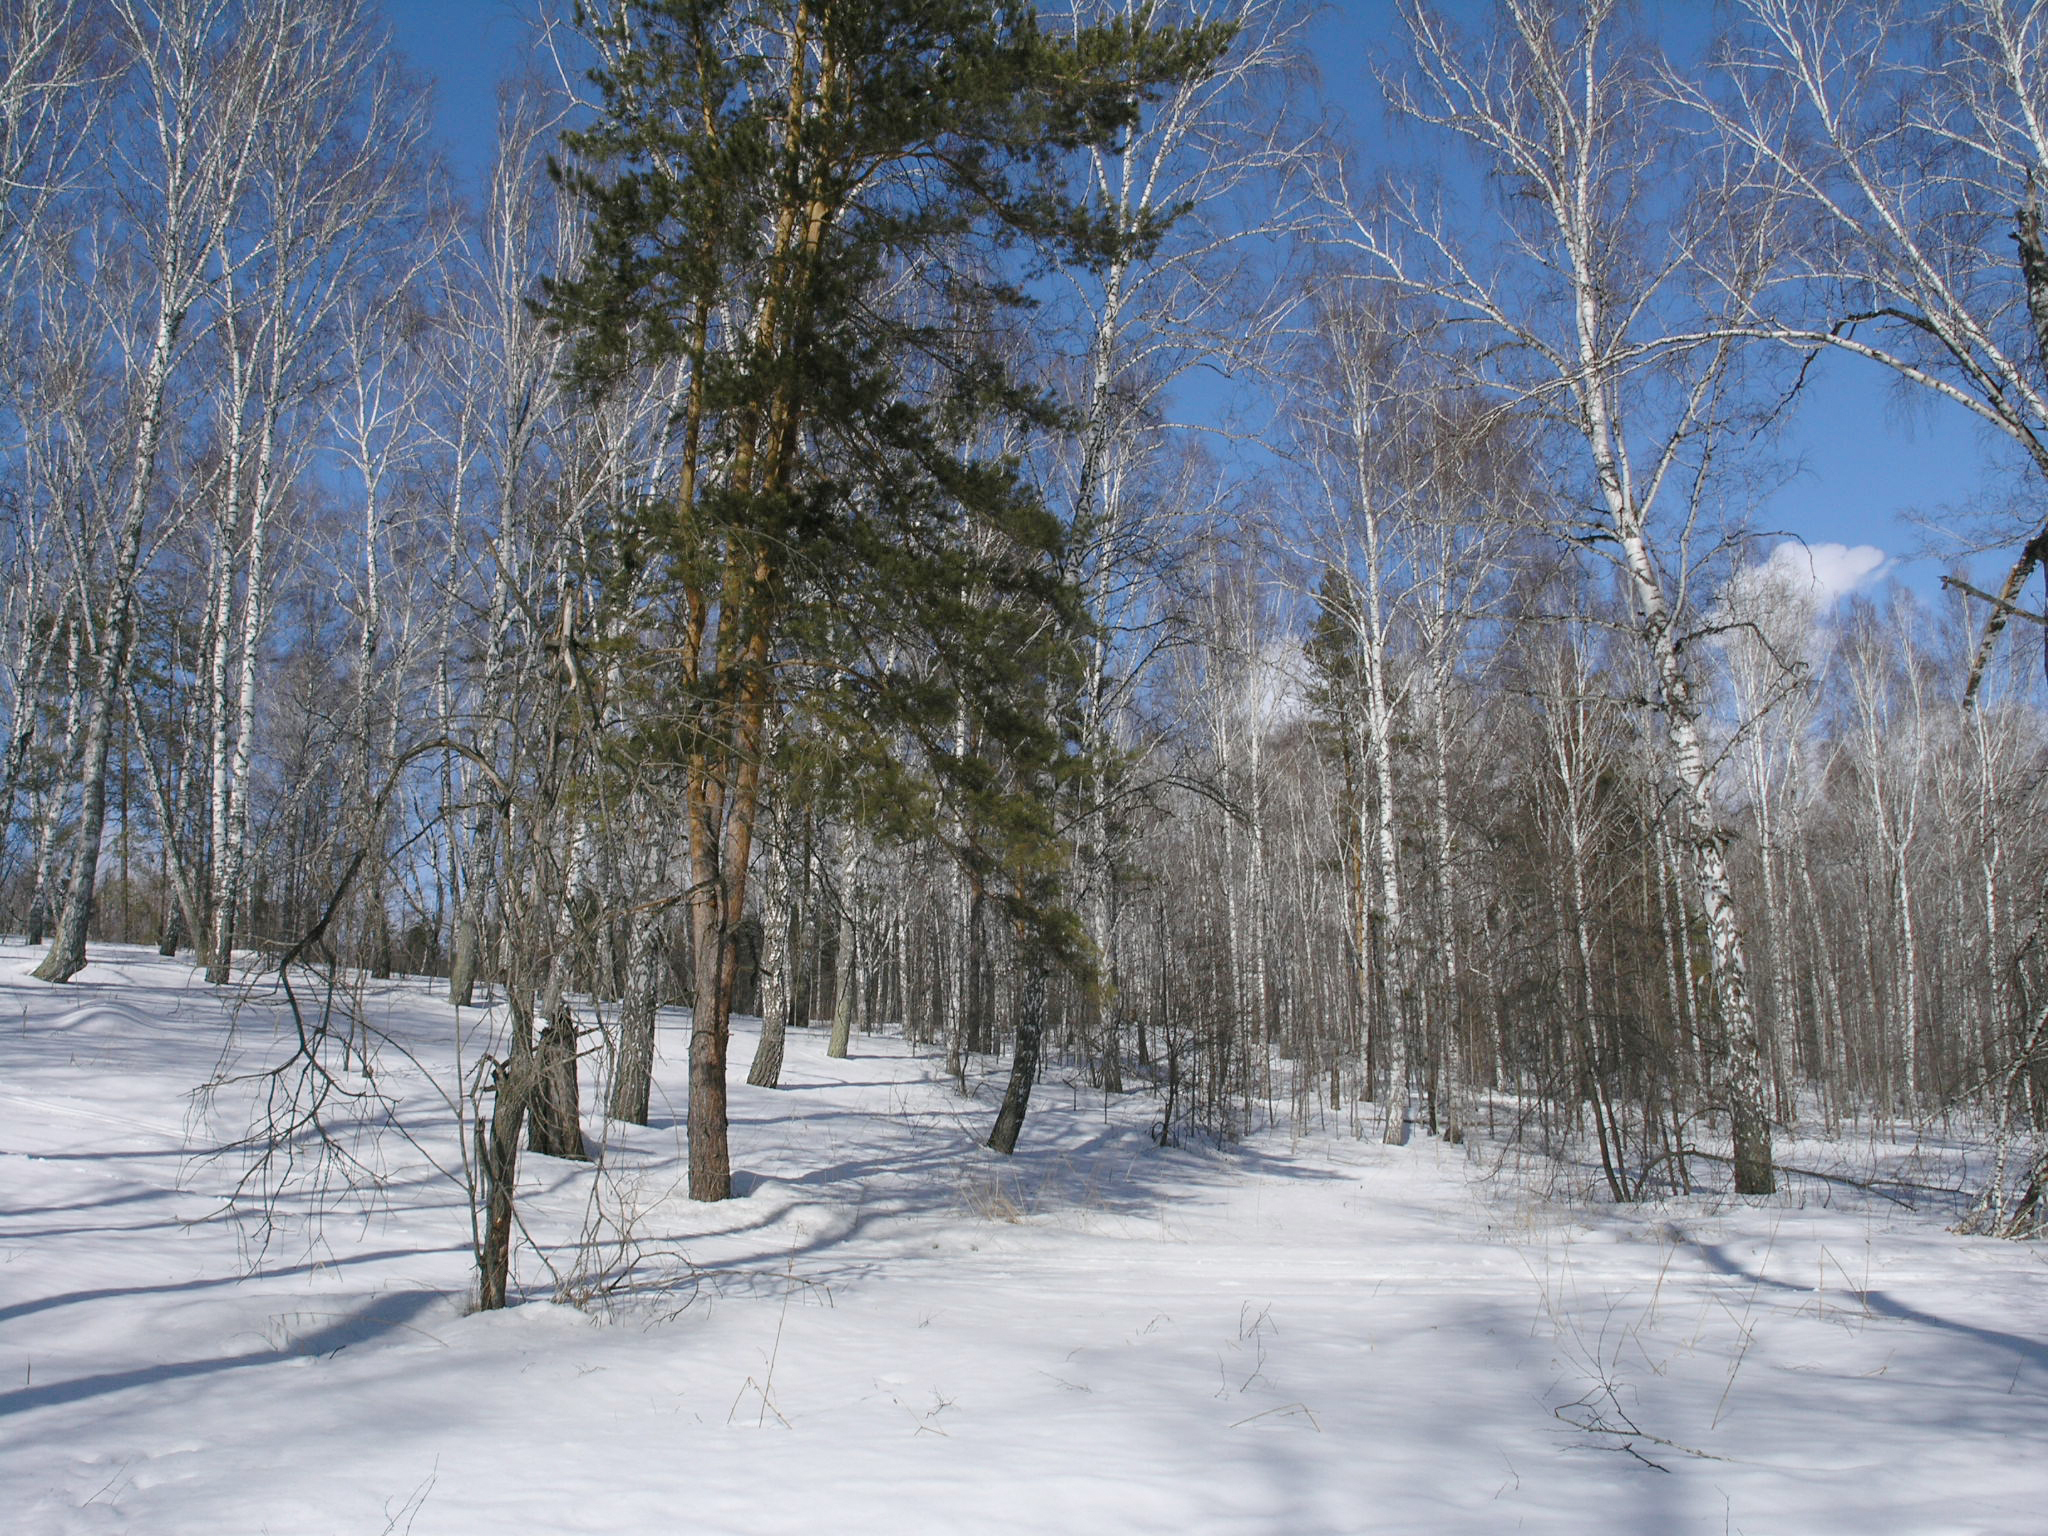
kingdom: Plantae
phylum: Tracheophyta
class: Pinopsida
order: Pinales
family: Pinaceae
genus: Pinus
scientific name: Pinus sylvestris
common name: Scots pine
